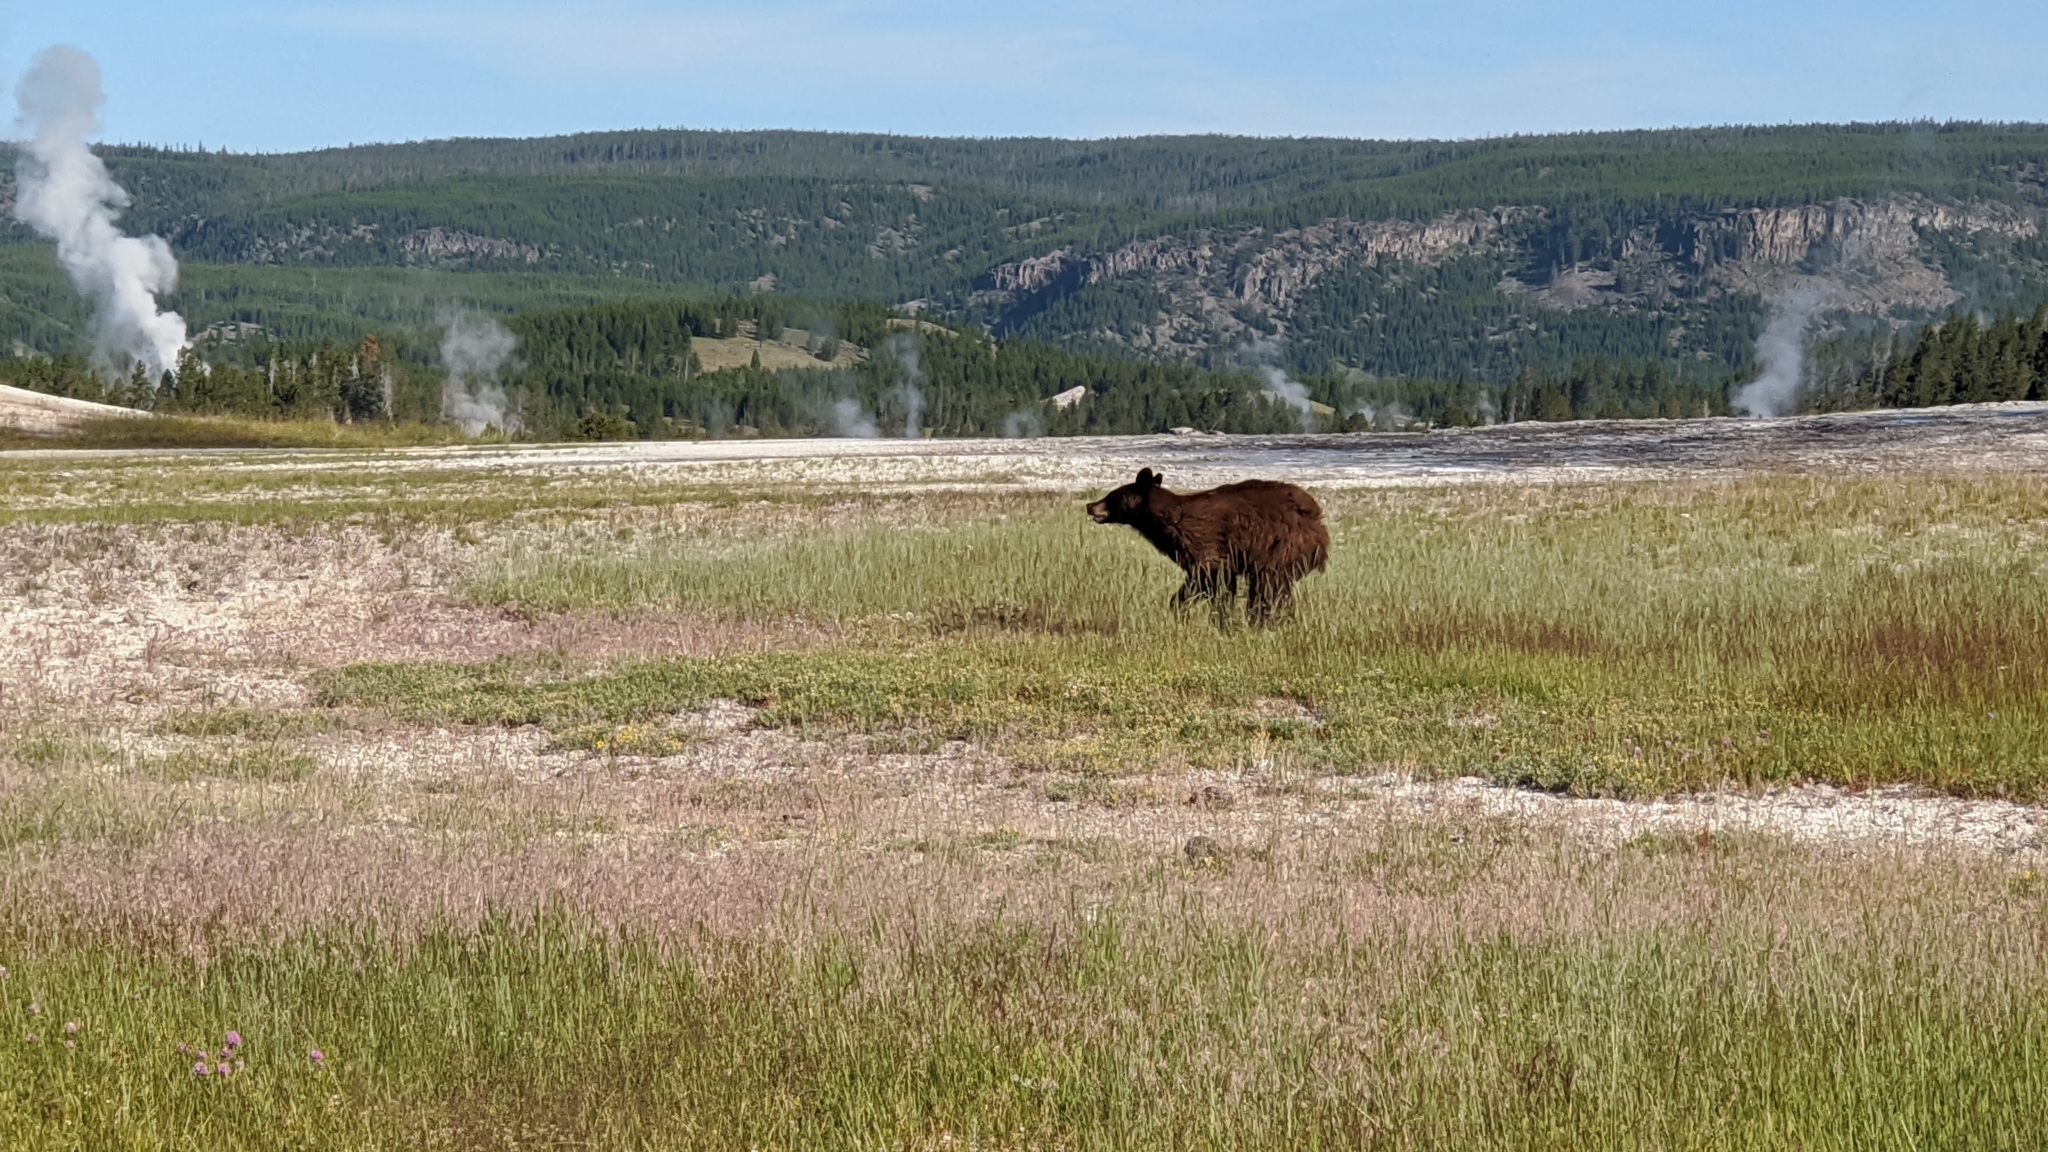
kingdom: Animalia
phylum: Chordata
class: Mammalia
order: Carnivora
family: Ursidae
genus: Ursus
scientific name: Ursus americanus
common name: American black bear
